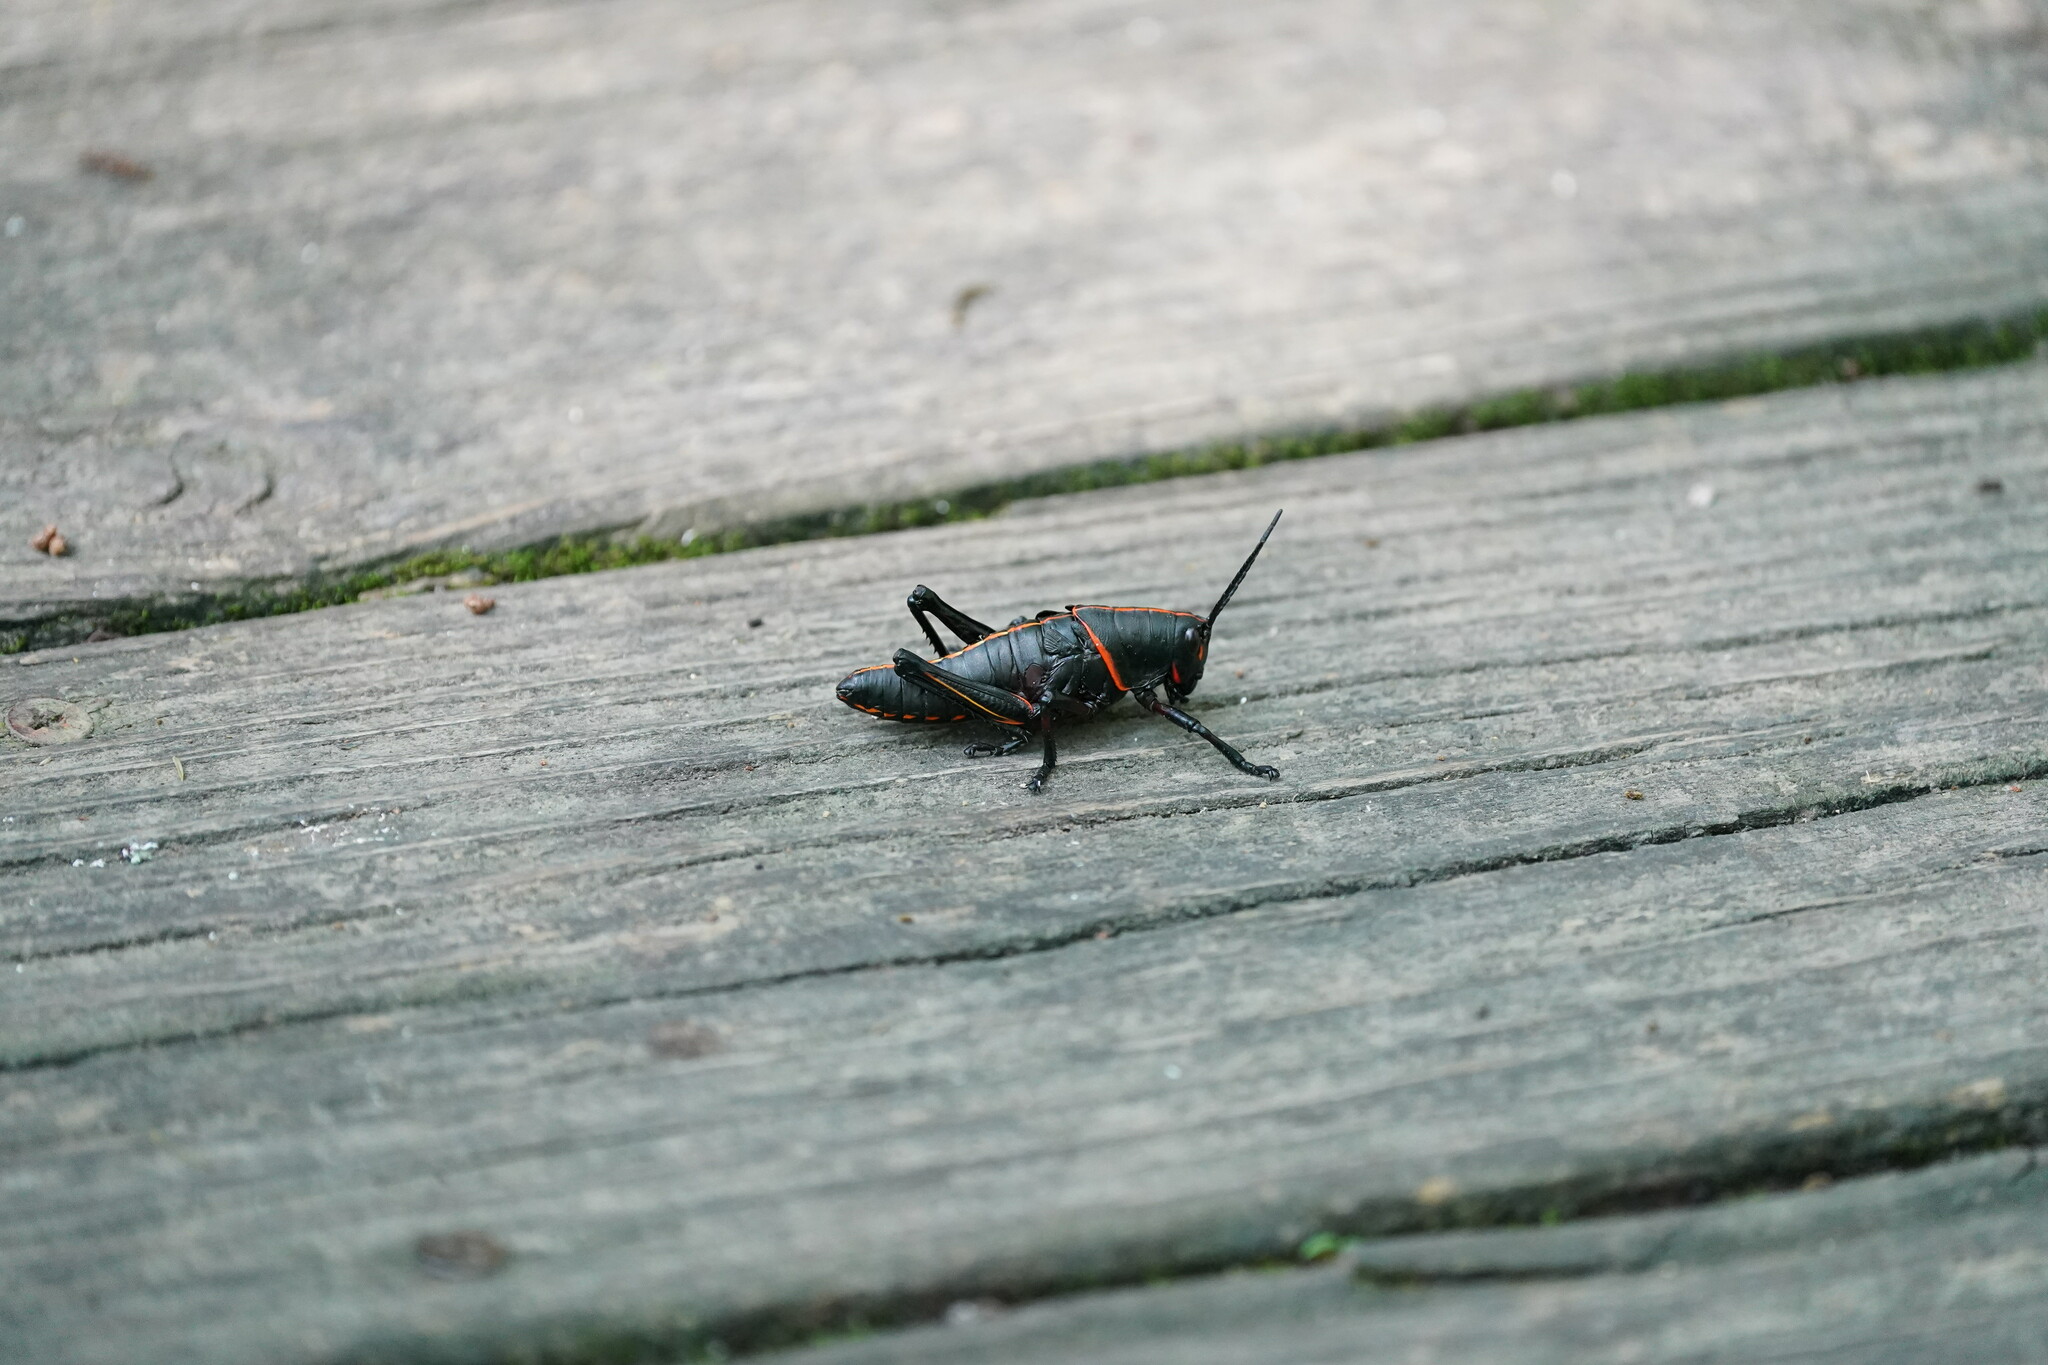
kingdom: Animalia
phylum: Arthropoda
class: Insecta
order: Orthoptera
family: Romaleidae
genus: Romalea
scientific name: Romalea microptera
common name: Eastern lubber grasshopper
